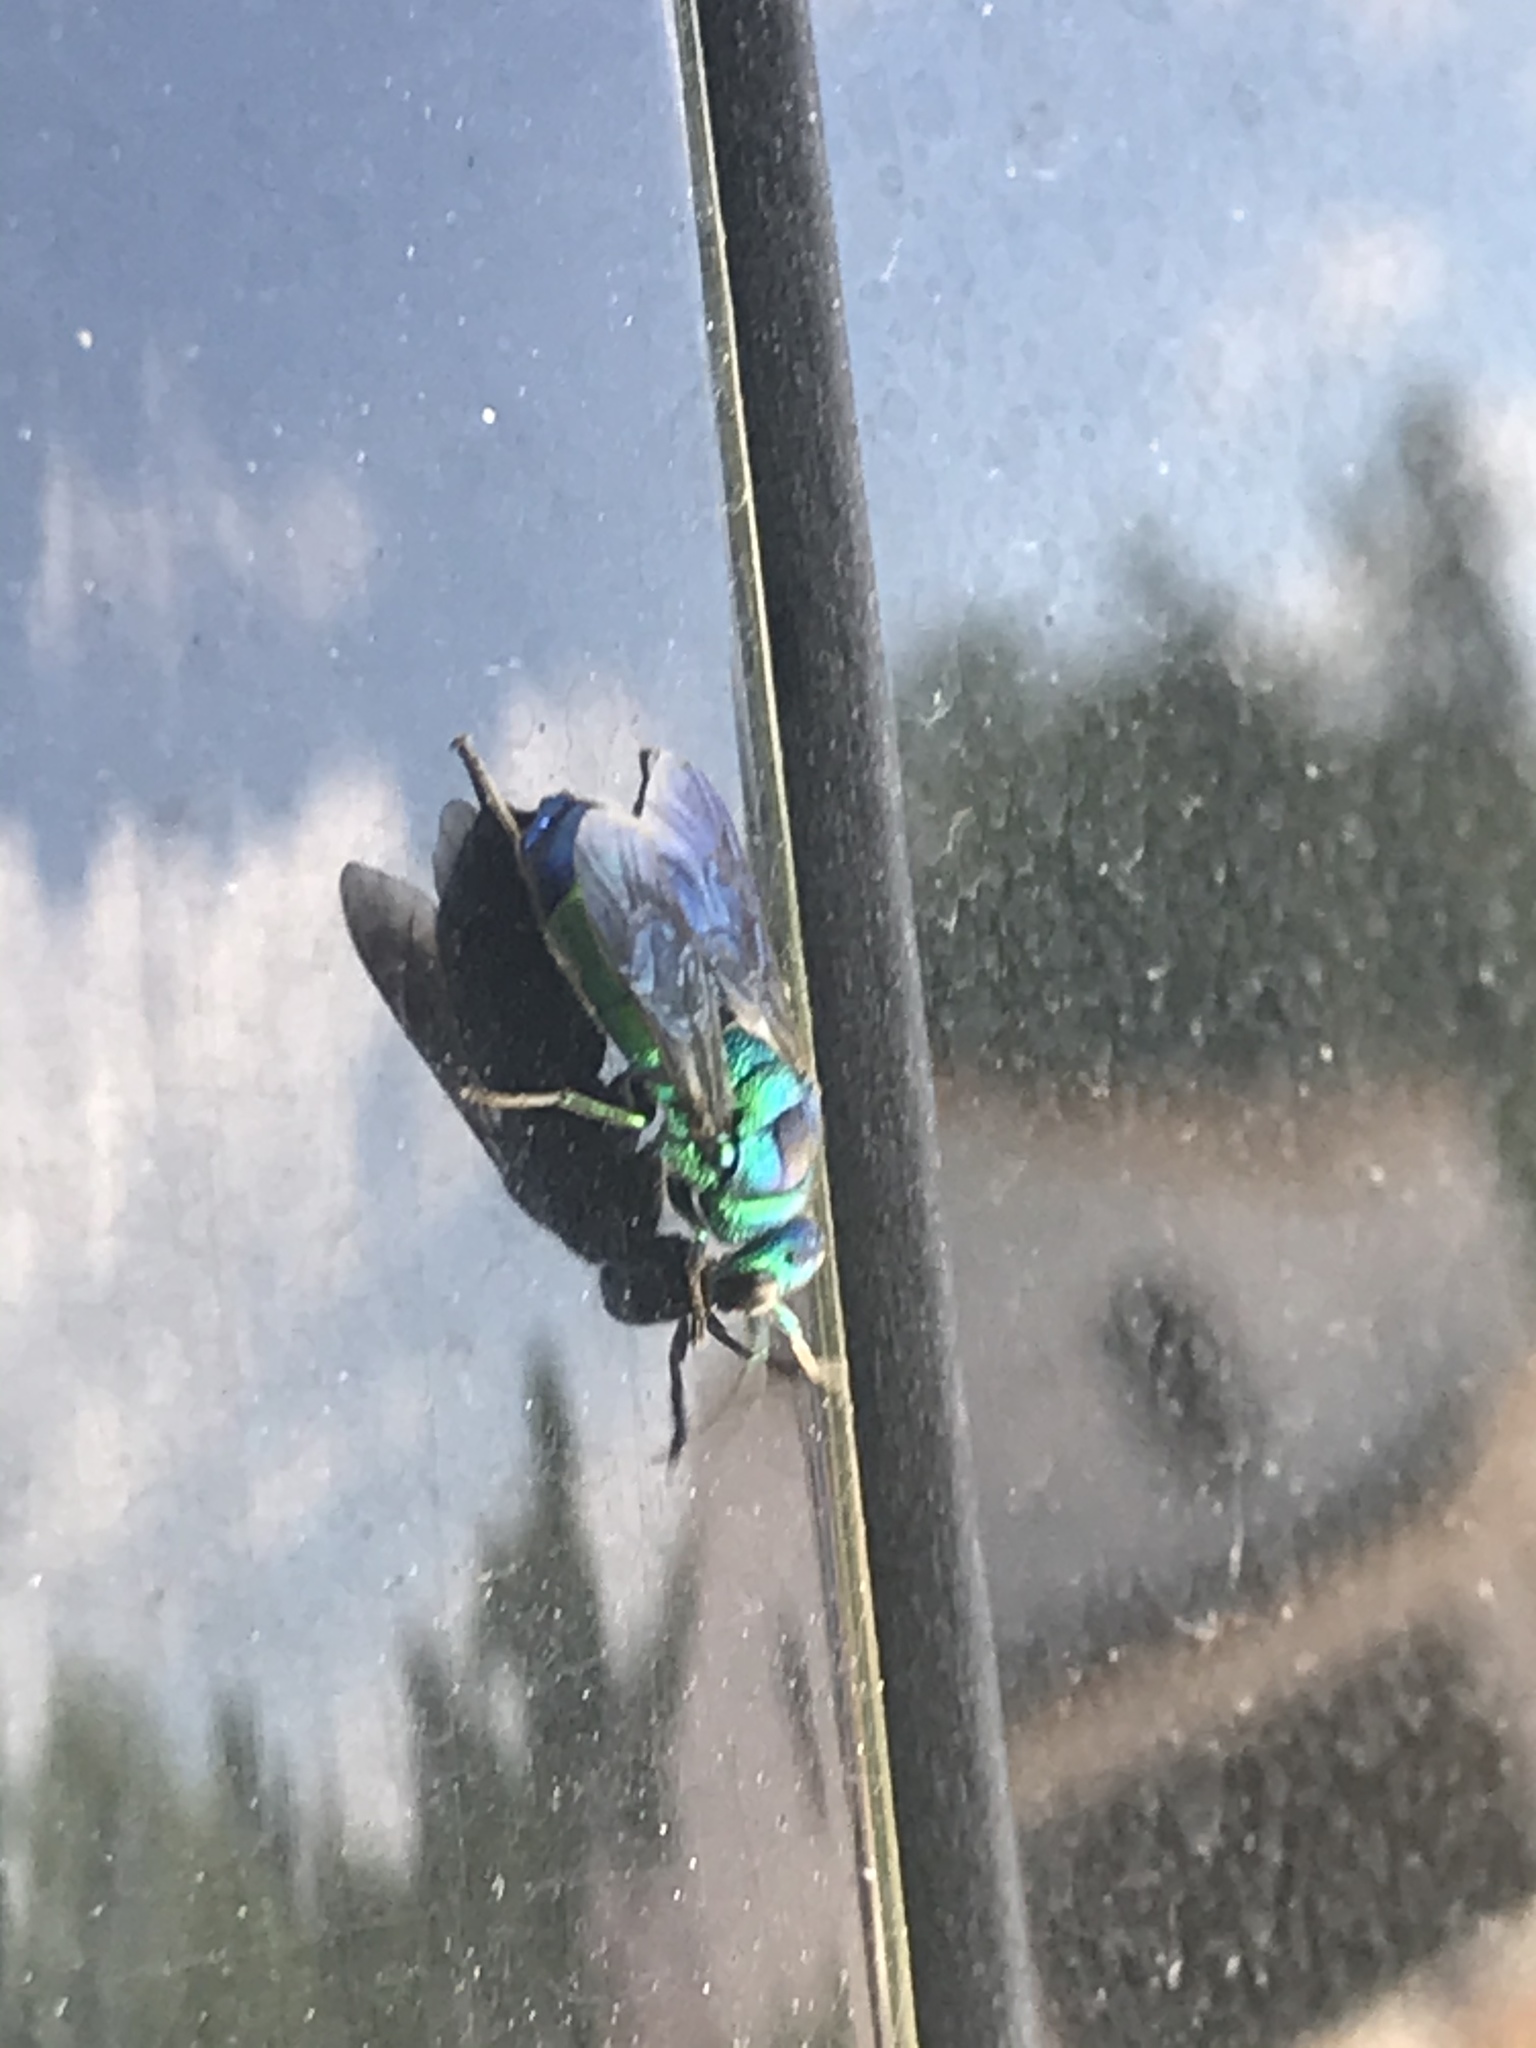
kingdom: Animalia
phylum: Arthropoda
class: Insecta
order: Hymenoptera
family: Chrysididae
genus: Chrysis
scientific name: Chrysis angolensis
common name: Cuckoo wasp
